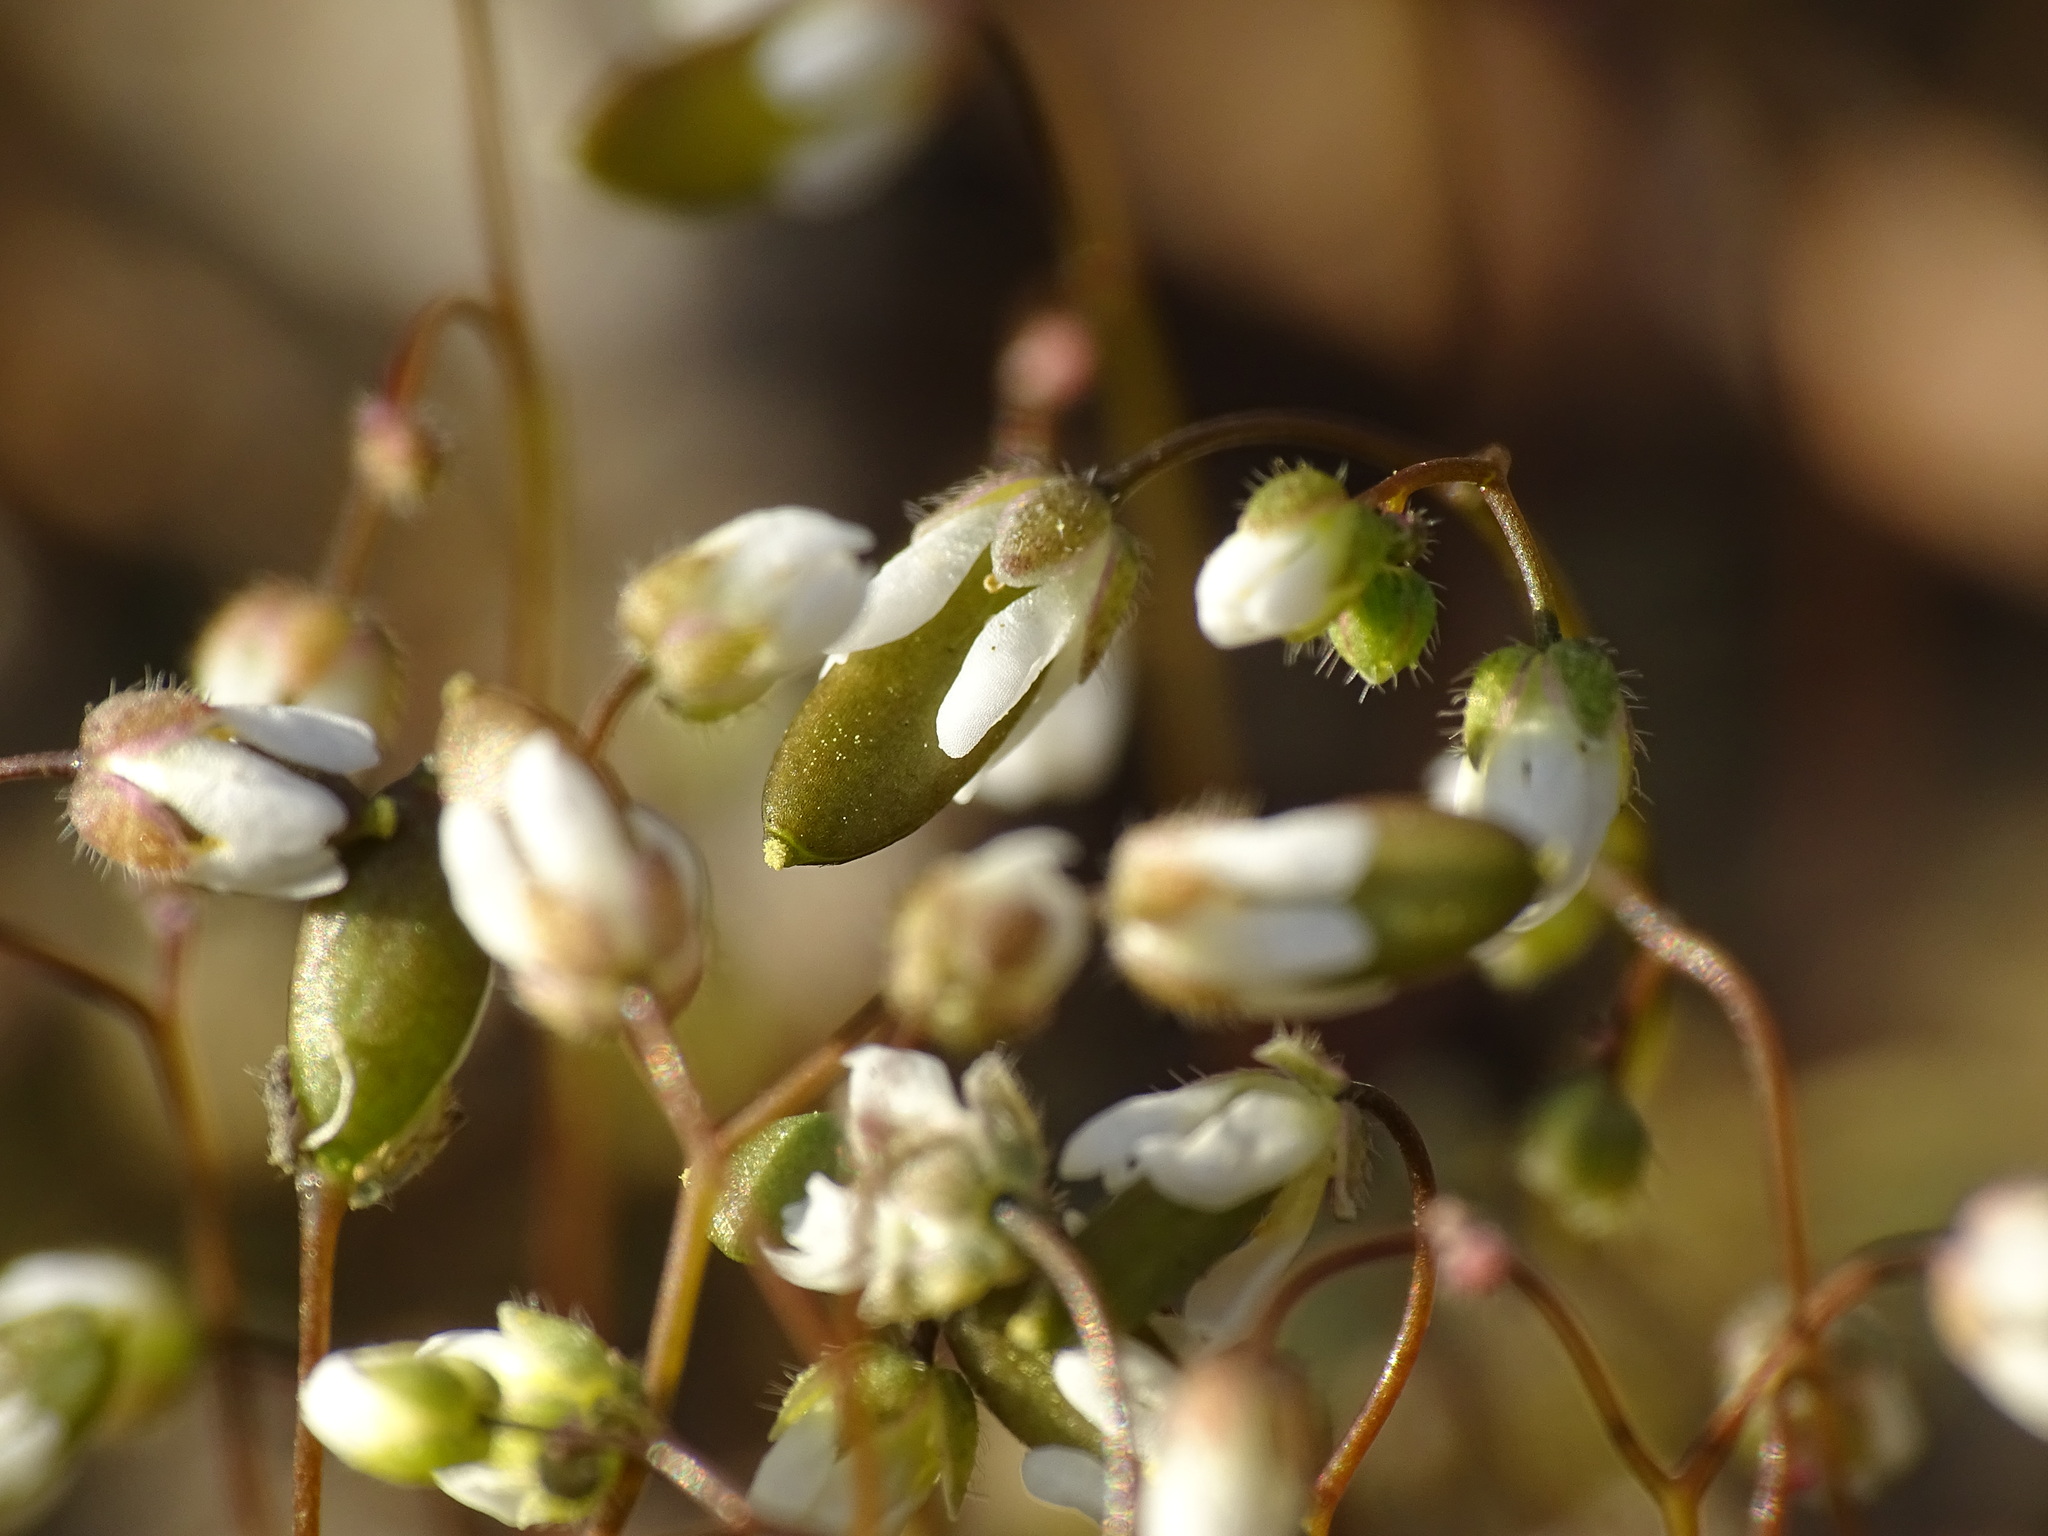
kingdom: Plantae
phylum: Tracheophyta
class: Magnoliopsida
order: Brassicales
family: Brassicaceae
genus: Draba
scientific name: Draba verna
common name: Spring draba
